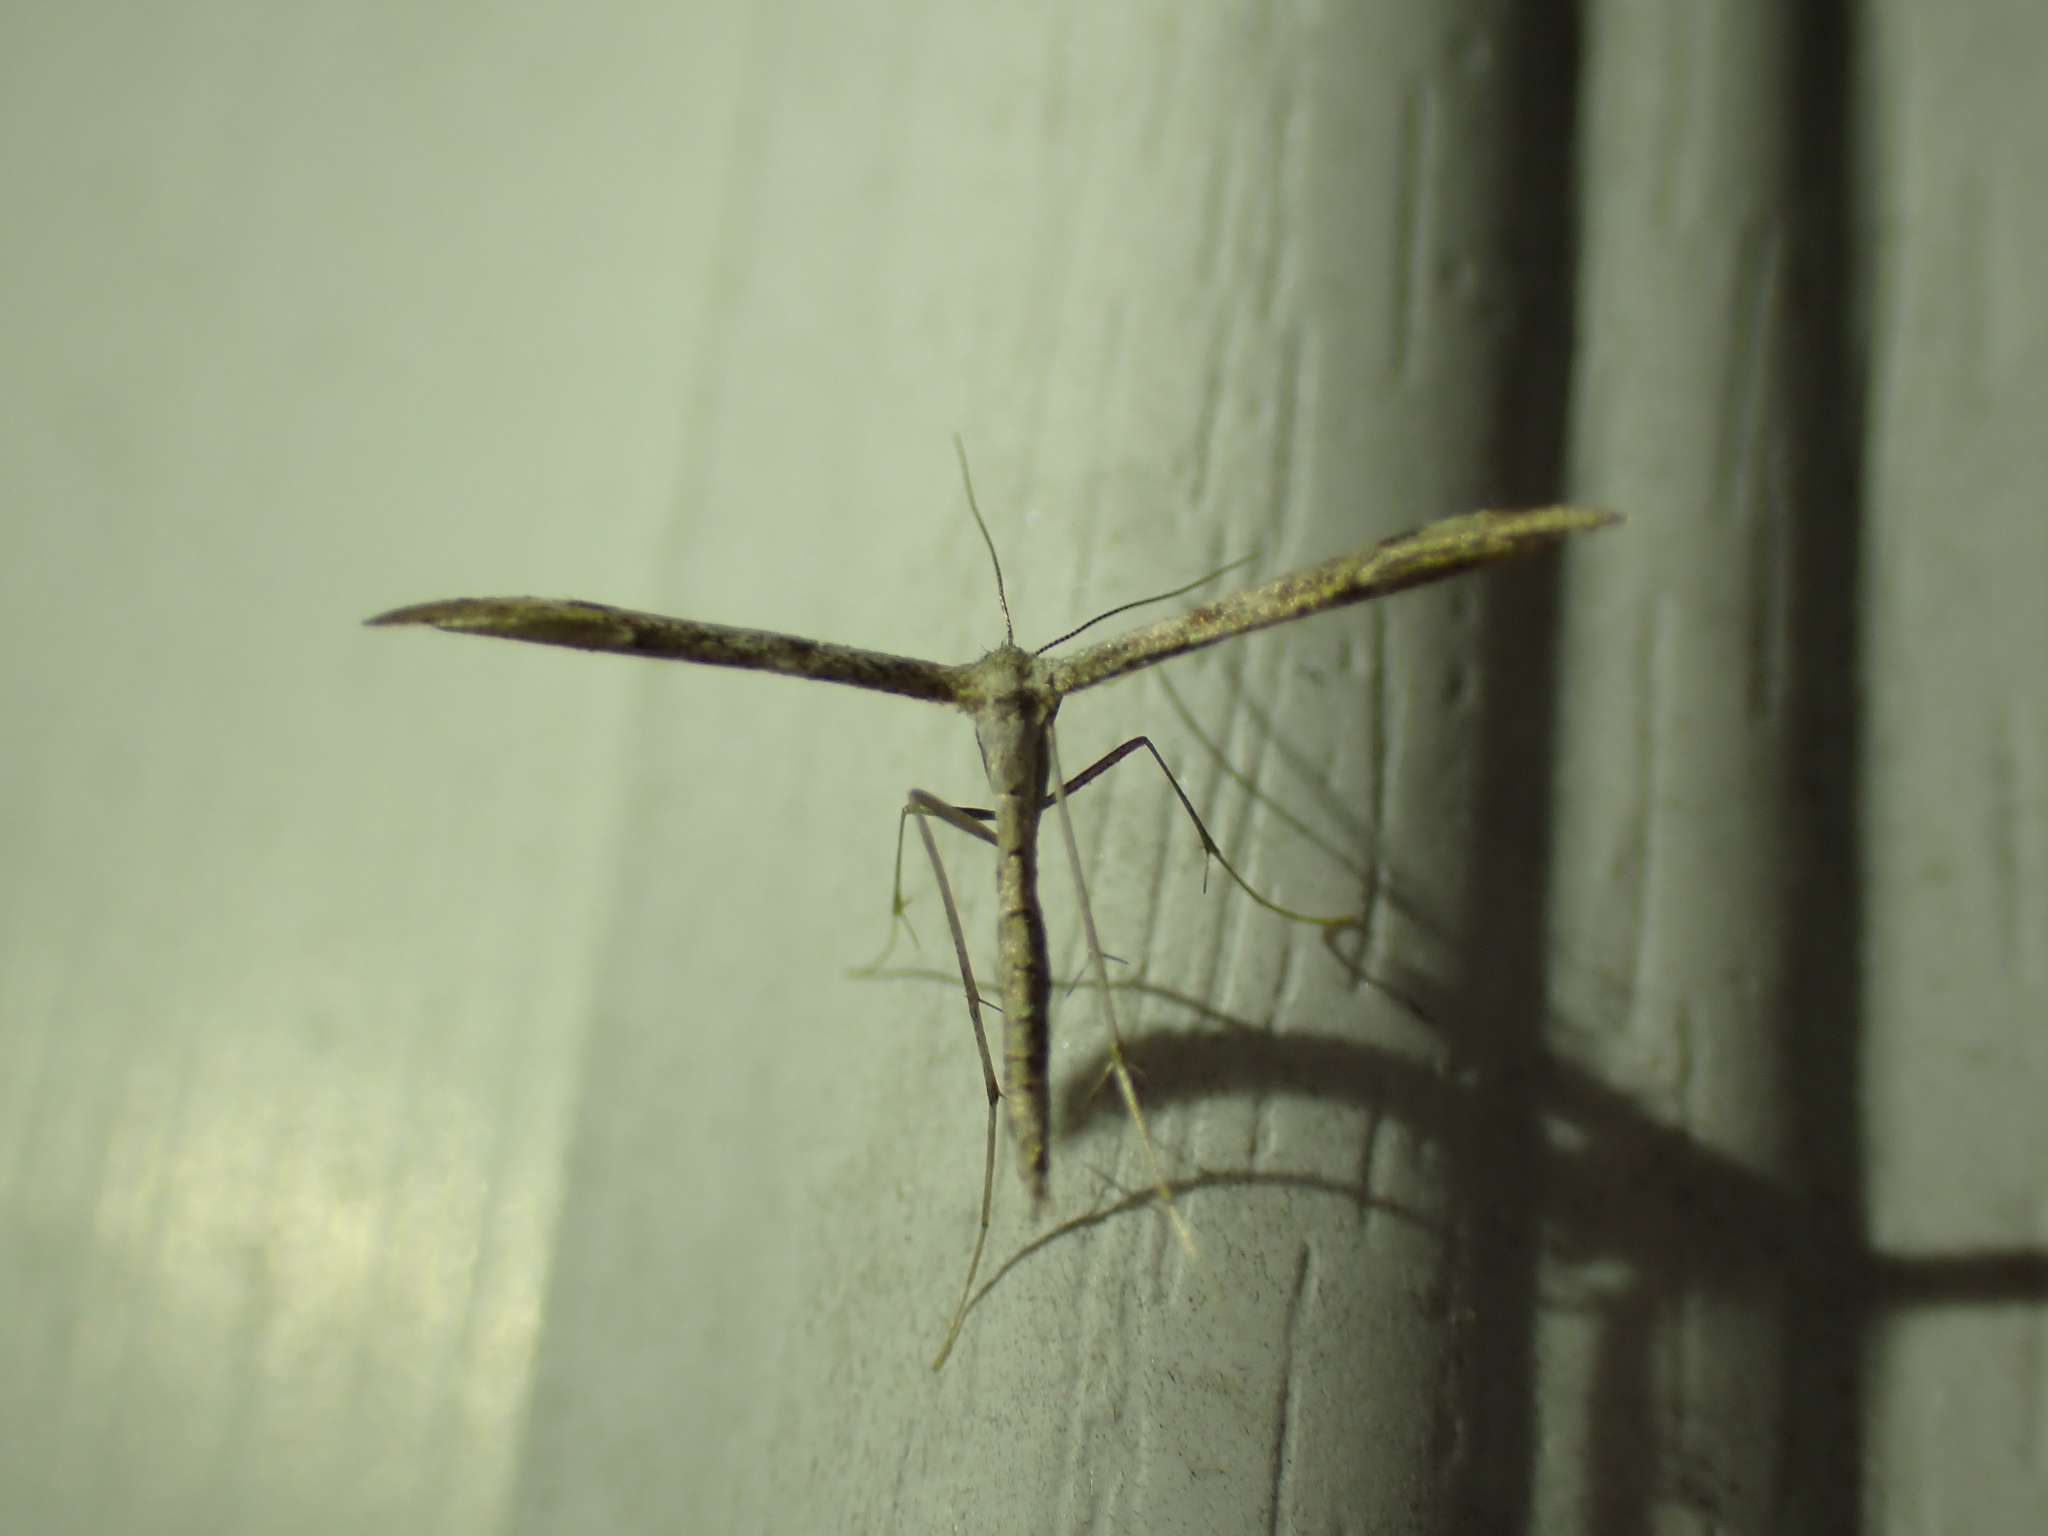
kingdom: Animalia
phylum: Arthropoda
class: Insecta
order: Lepidoptera
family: Pterophoridae
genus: Hellinsia
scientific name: Hellinsia inquinatus
